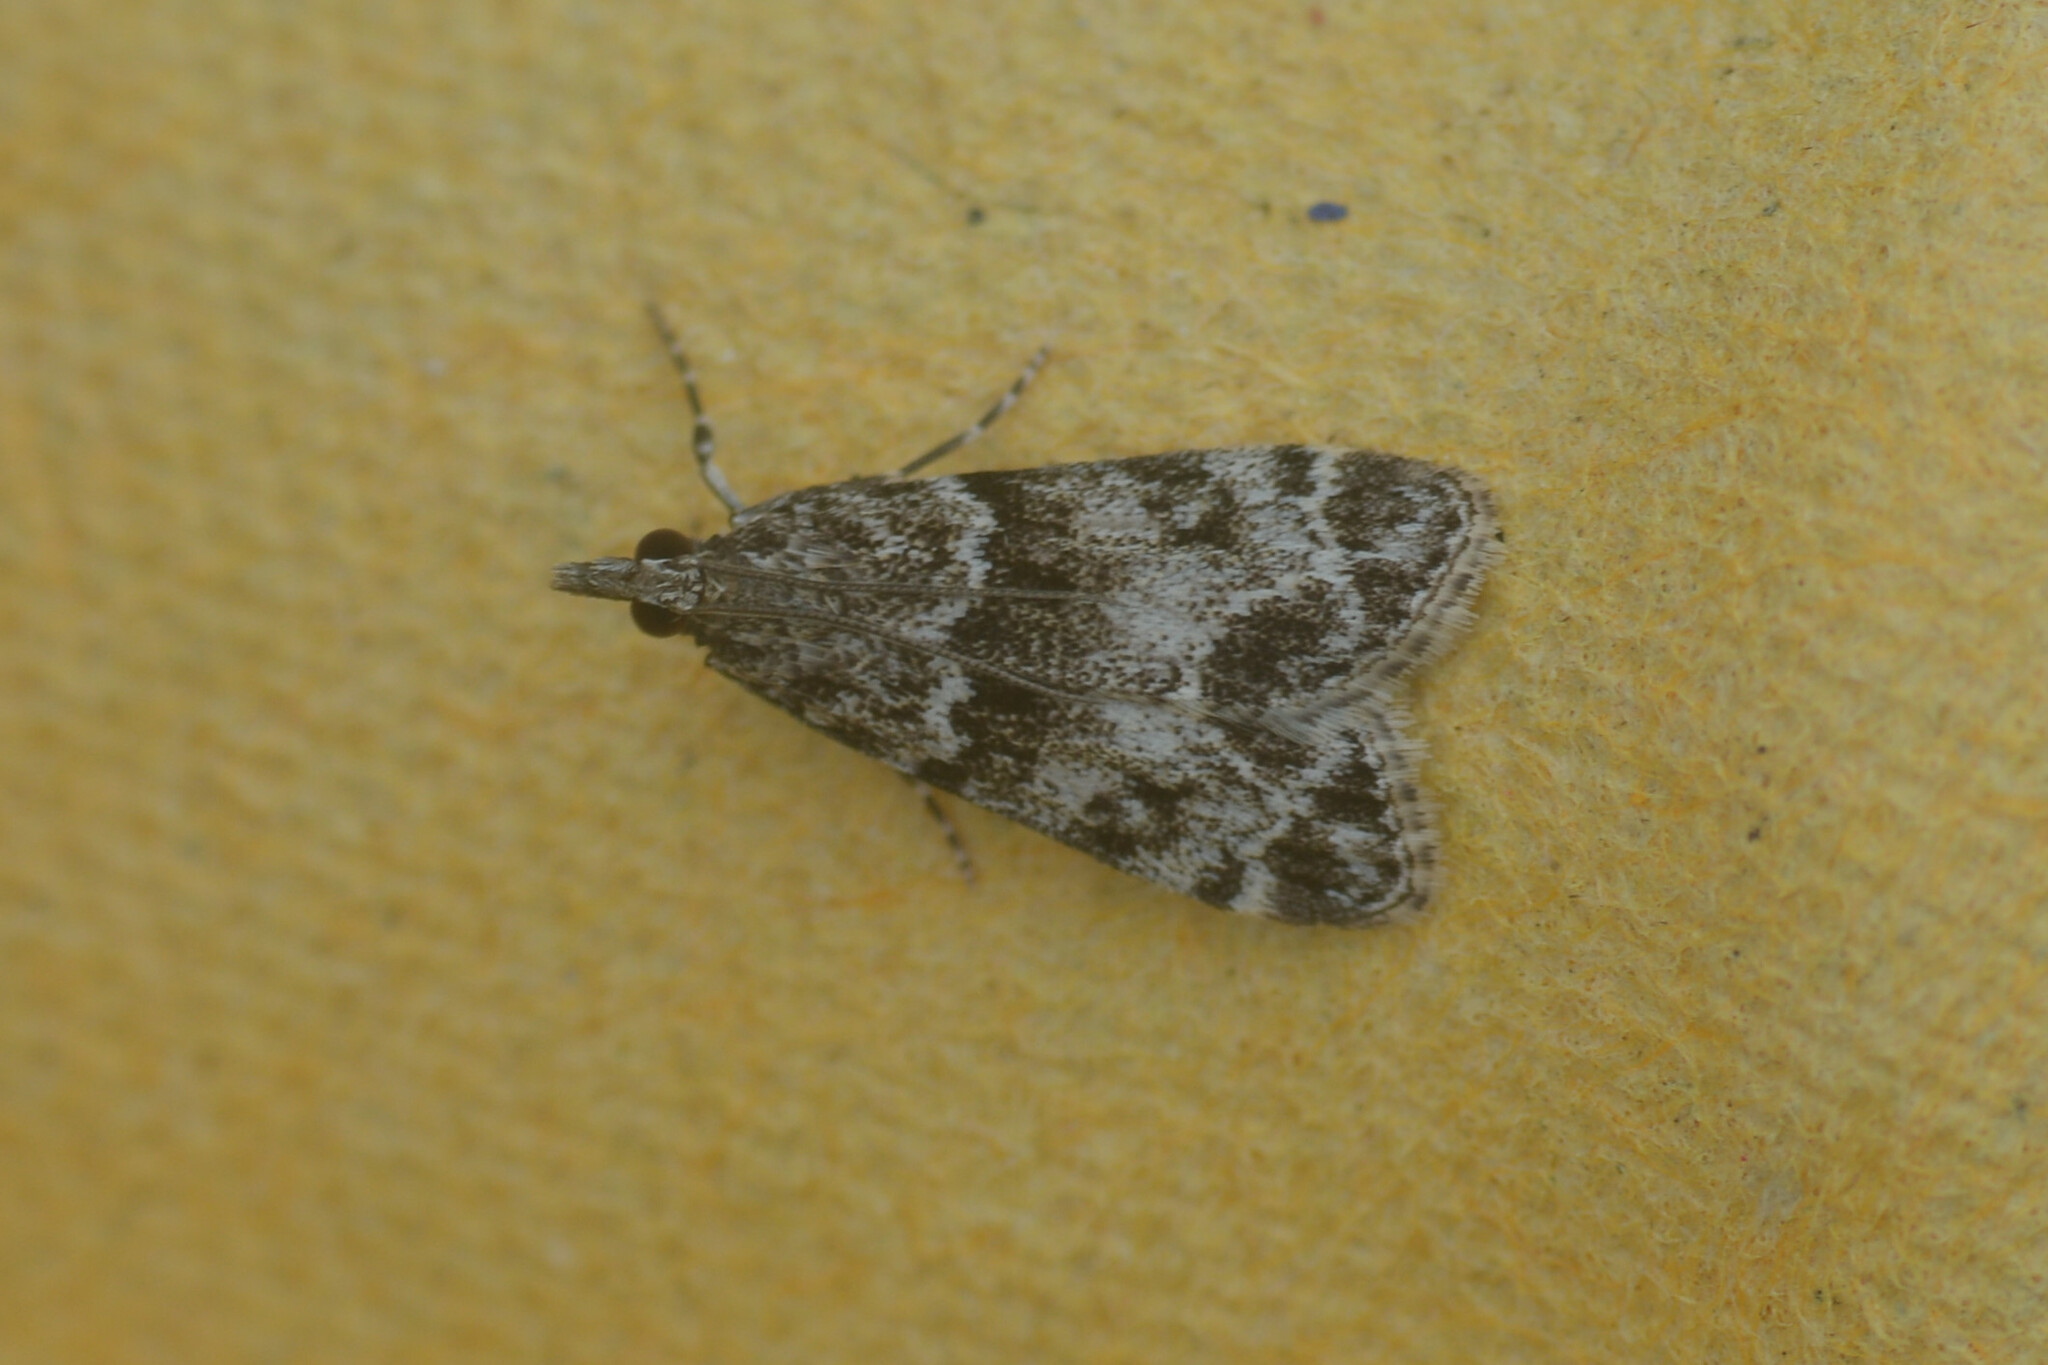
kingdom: Animalia
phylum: Arthropoda
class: Insecta
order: Lepidoptera
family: Crambidae
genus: Eudonia
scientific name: Eudonia mercurella
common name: Small grey
